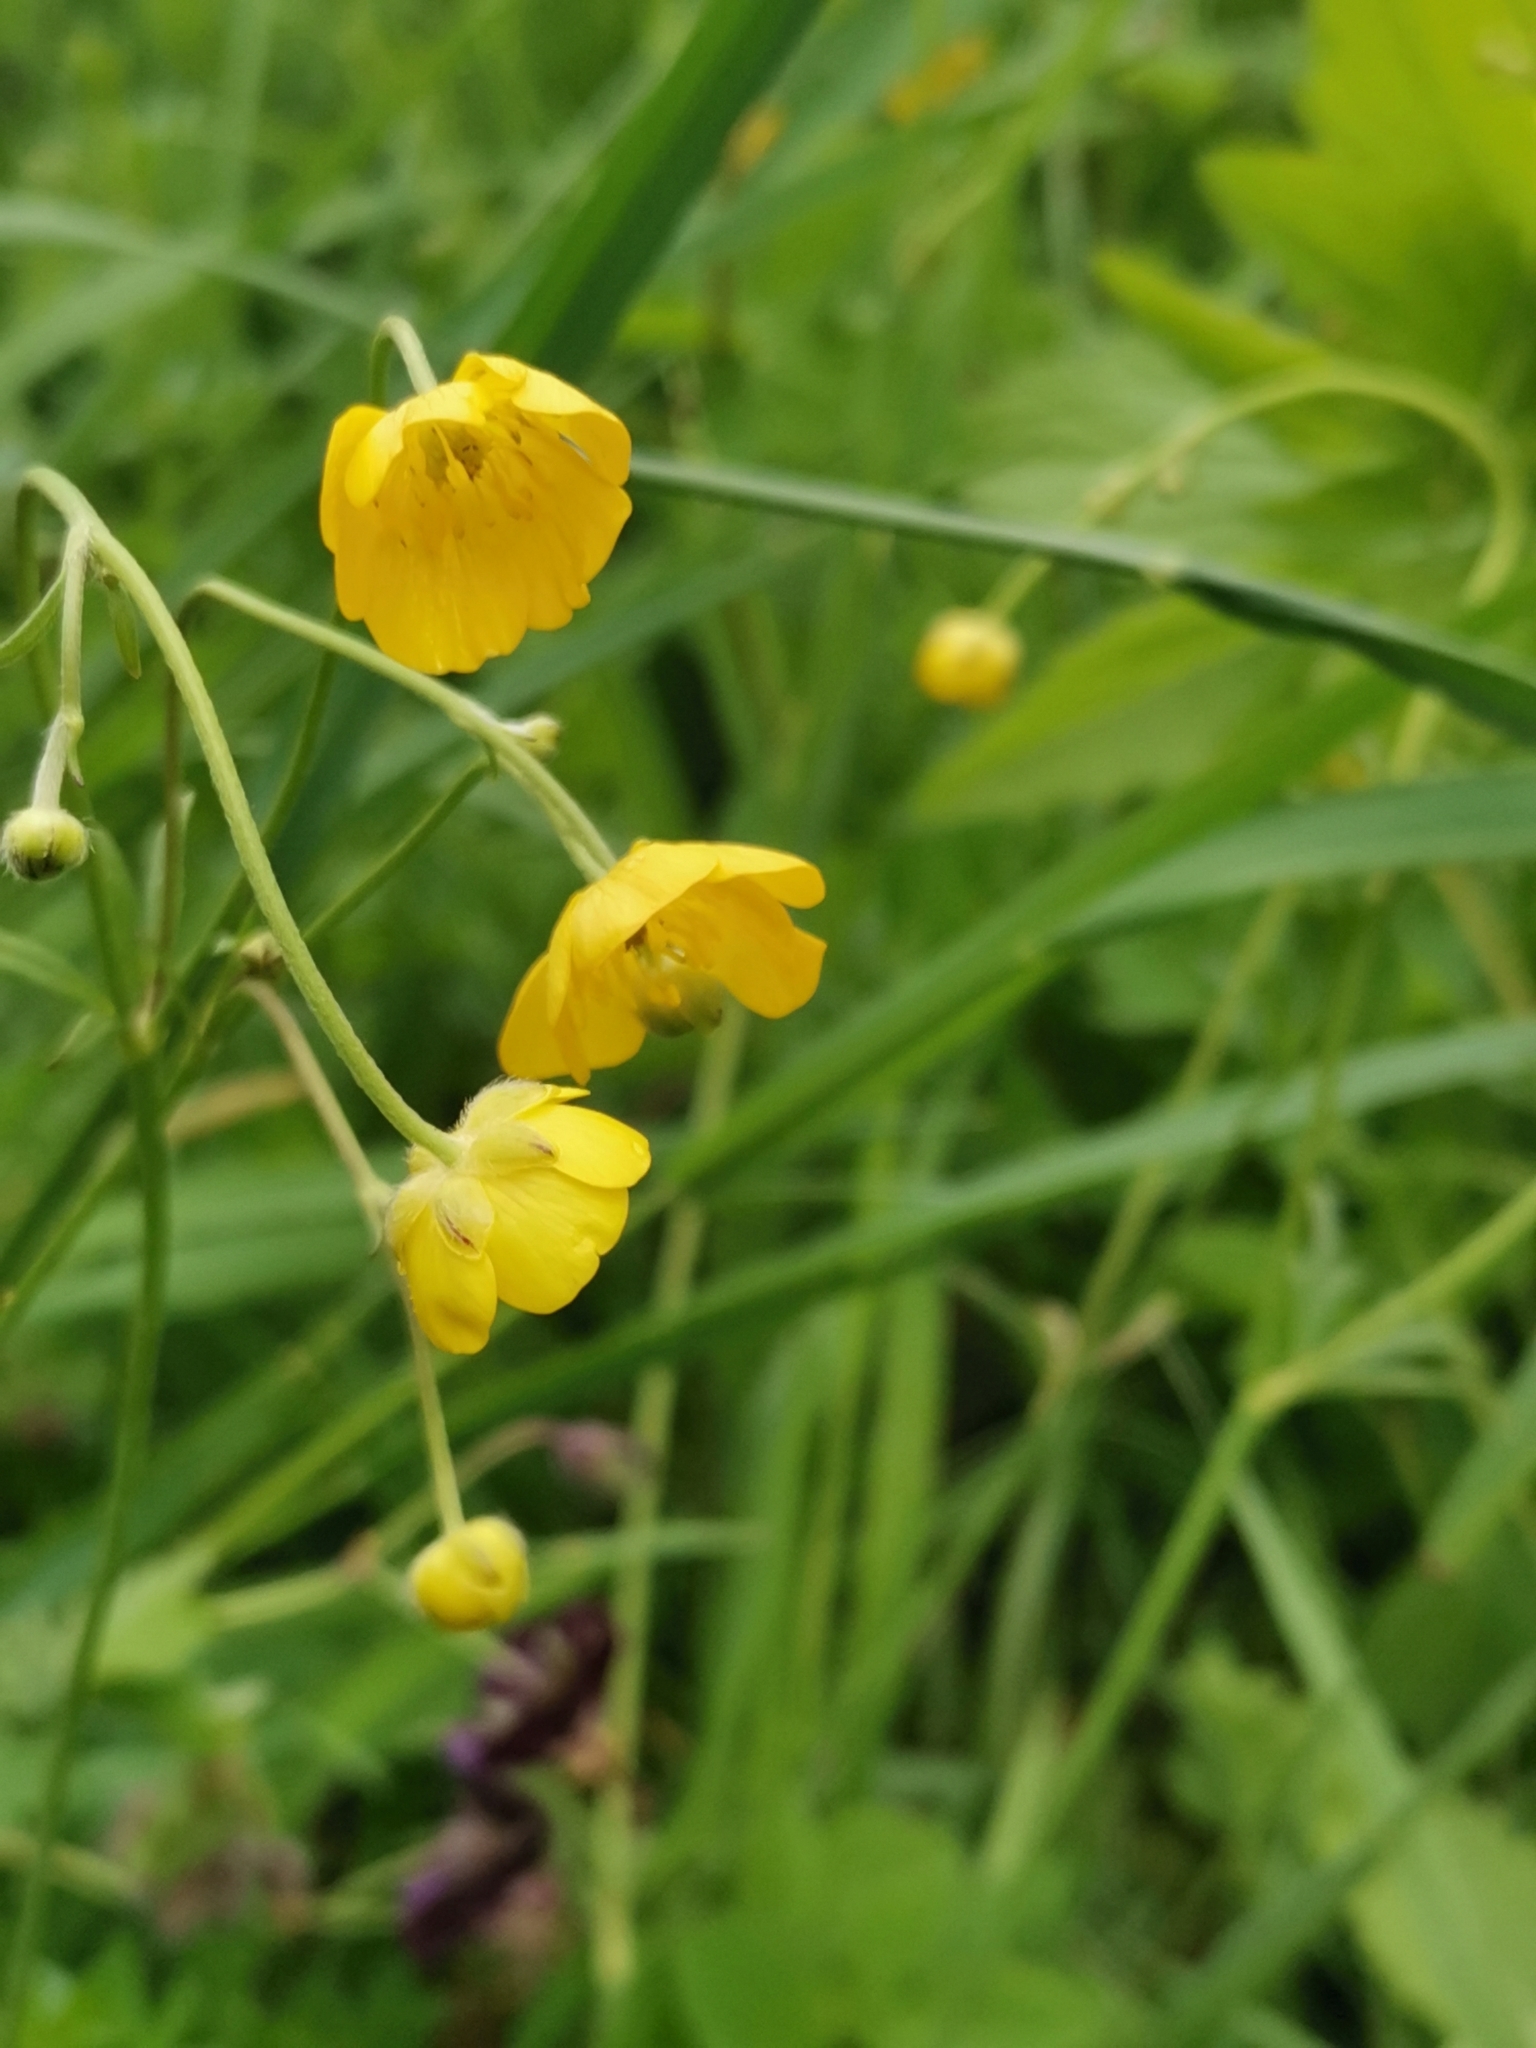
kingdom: Plantae
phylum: Tracheophyta
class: Magnoliopsida
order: Ranunculales
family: Ranunculaceae
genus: Ranunculus
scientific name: Ranunculus acris
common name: Meadow buttercup
